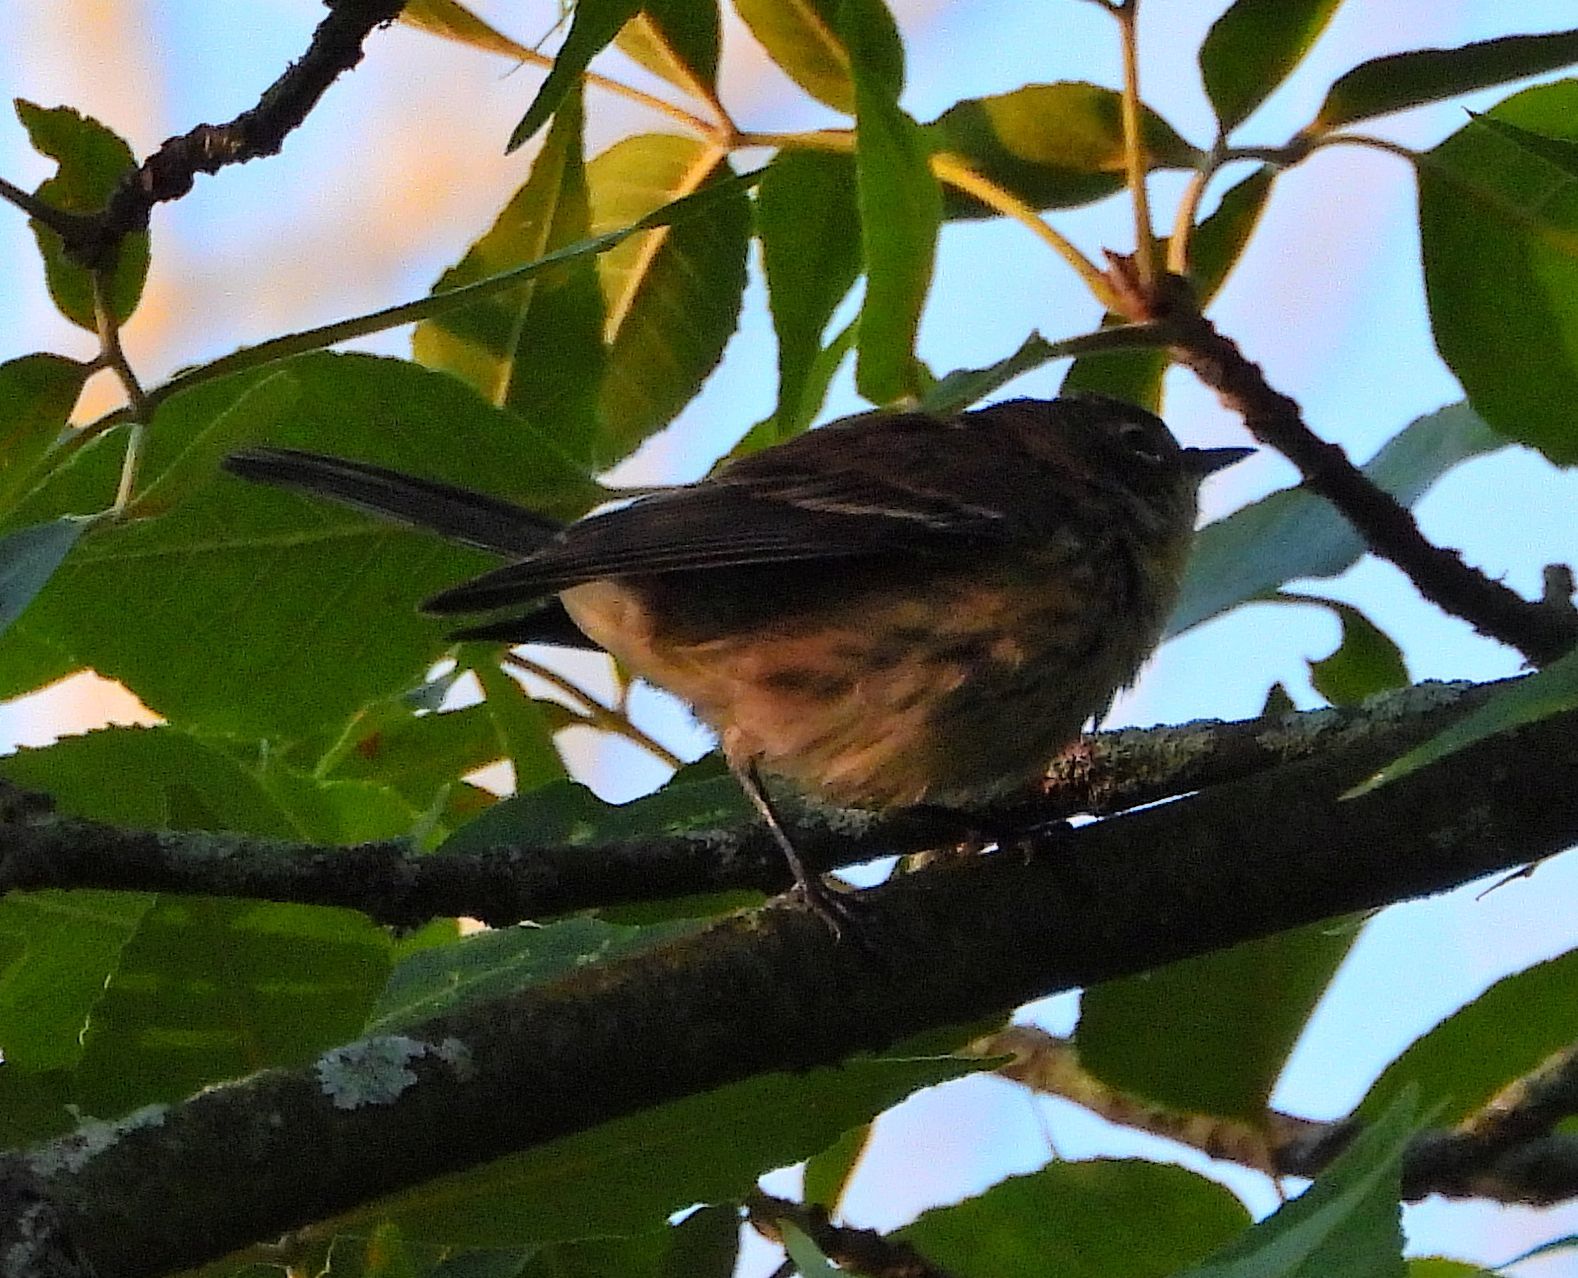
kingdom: Animalia
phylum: Chordata
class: Aves
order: Passeriformes
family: Parulidae
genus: Setophaga
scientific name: Setophaga coronata
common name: Myrtle warbler
